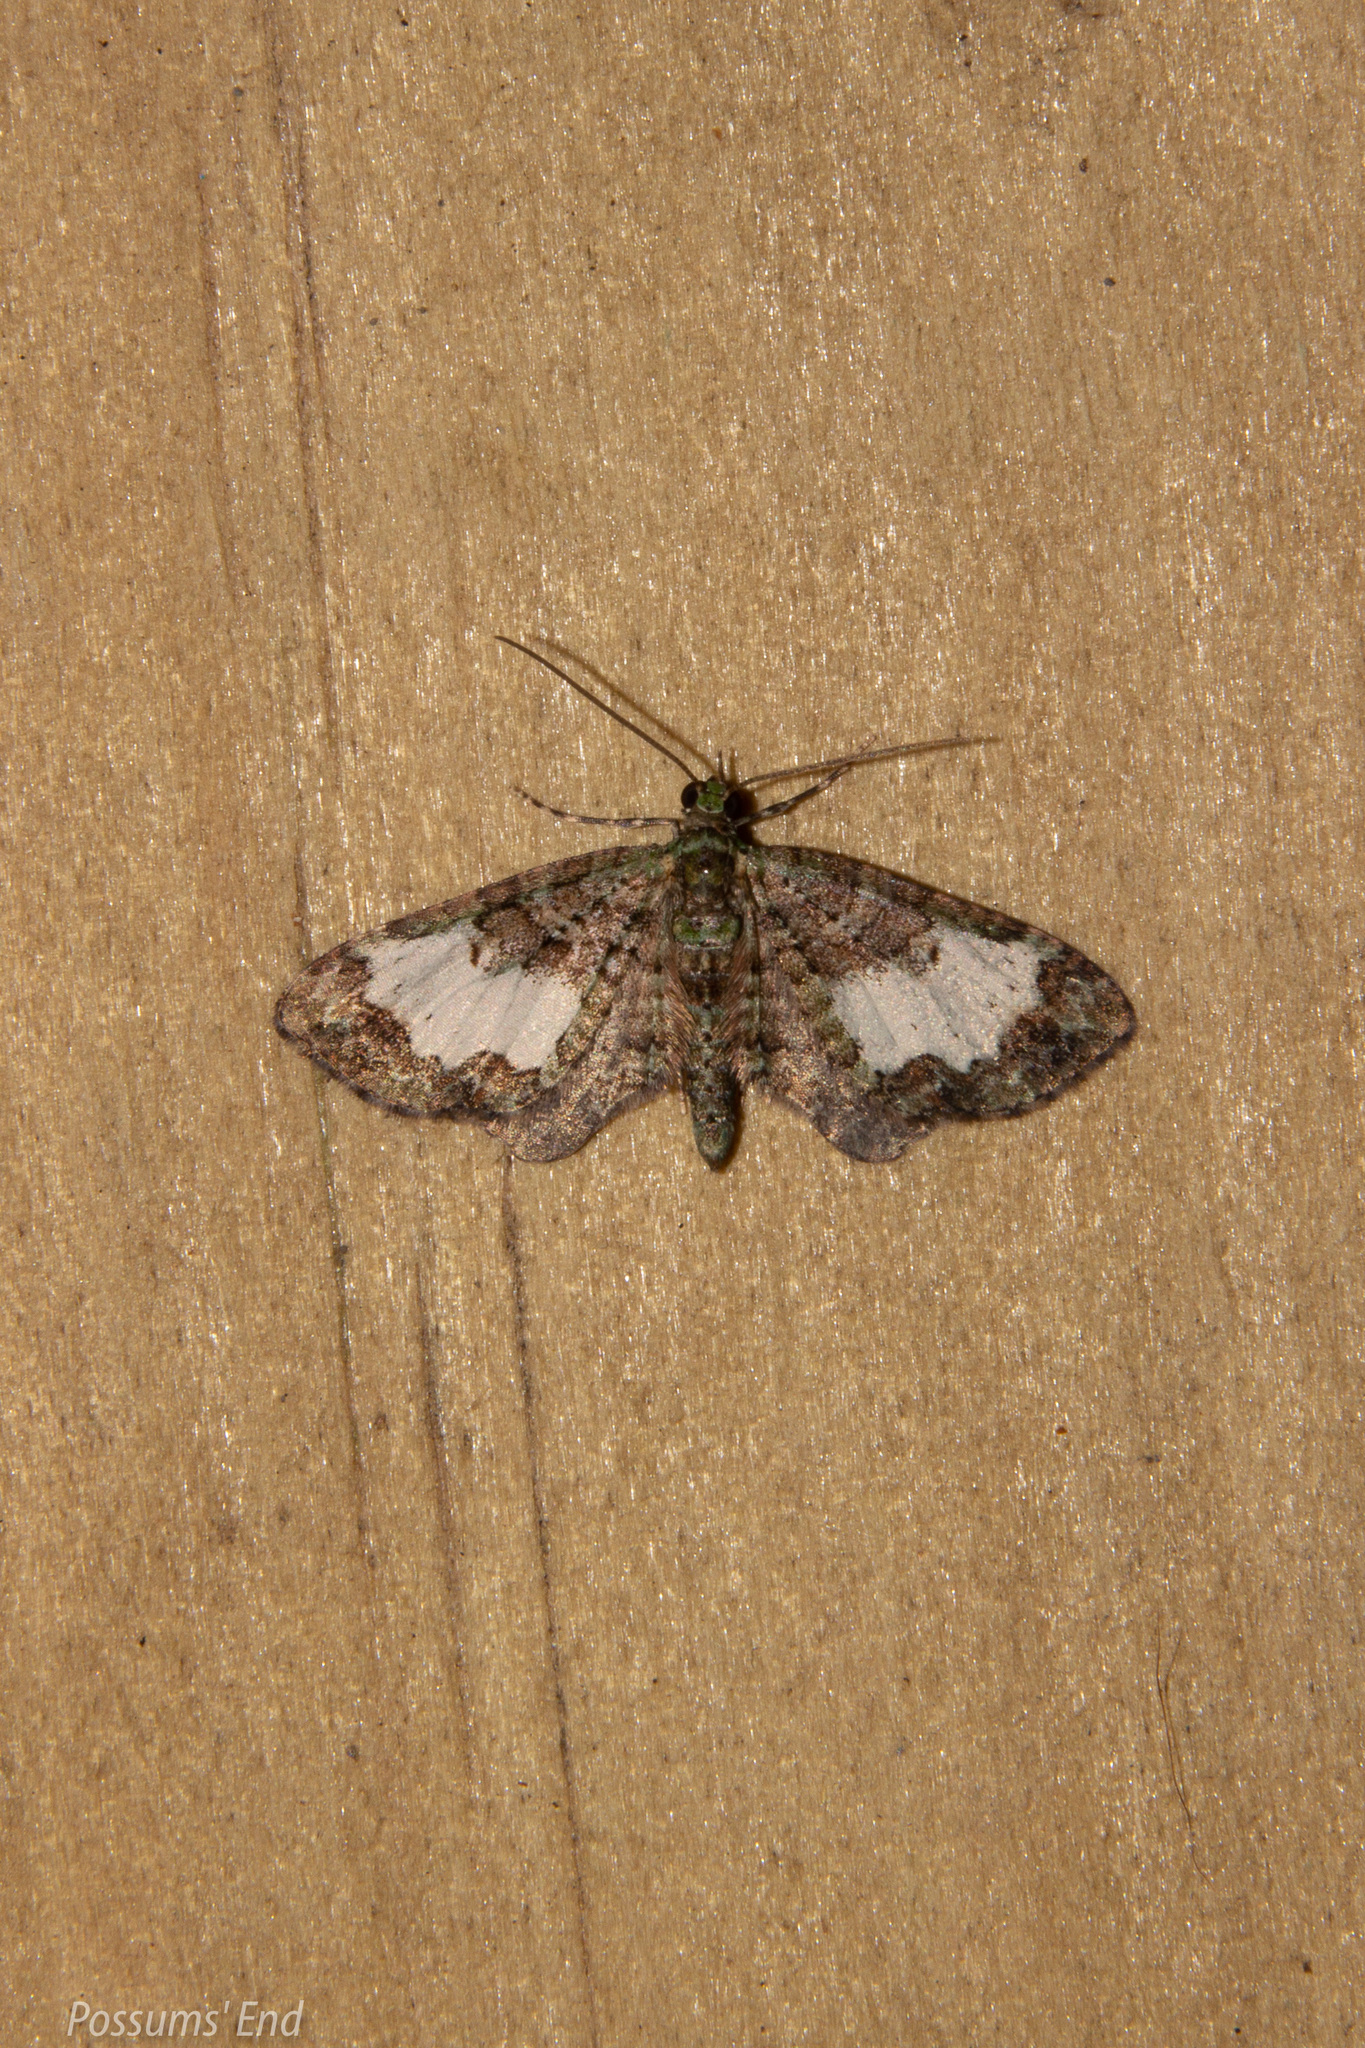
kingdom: Animalia
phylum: Arthropoda
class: Insecta
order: Lepidoptera
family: Geometridae
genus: Idaea
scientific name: Idaea mutanda
